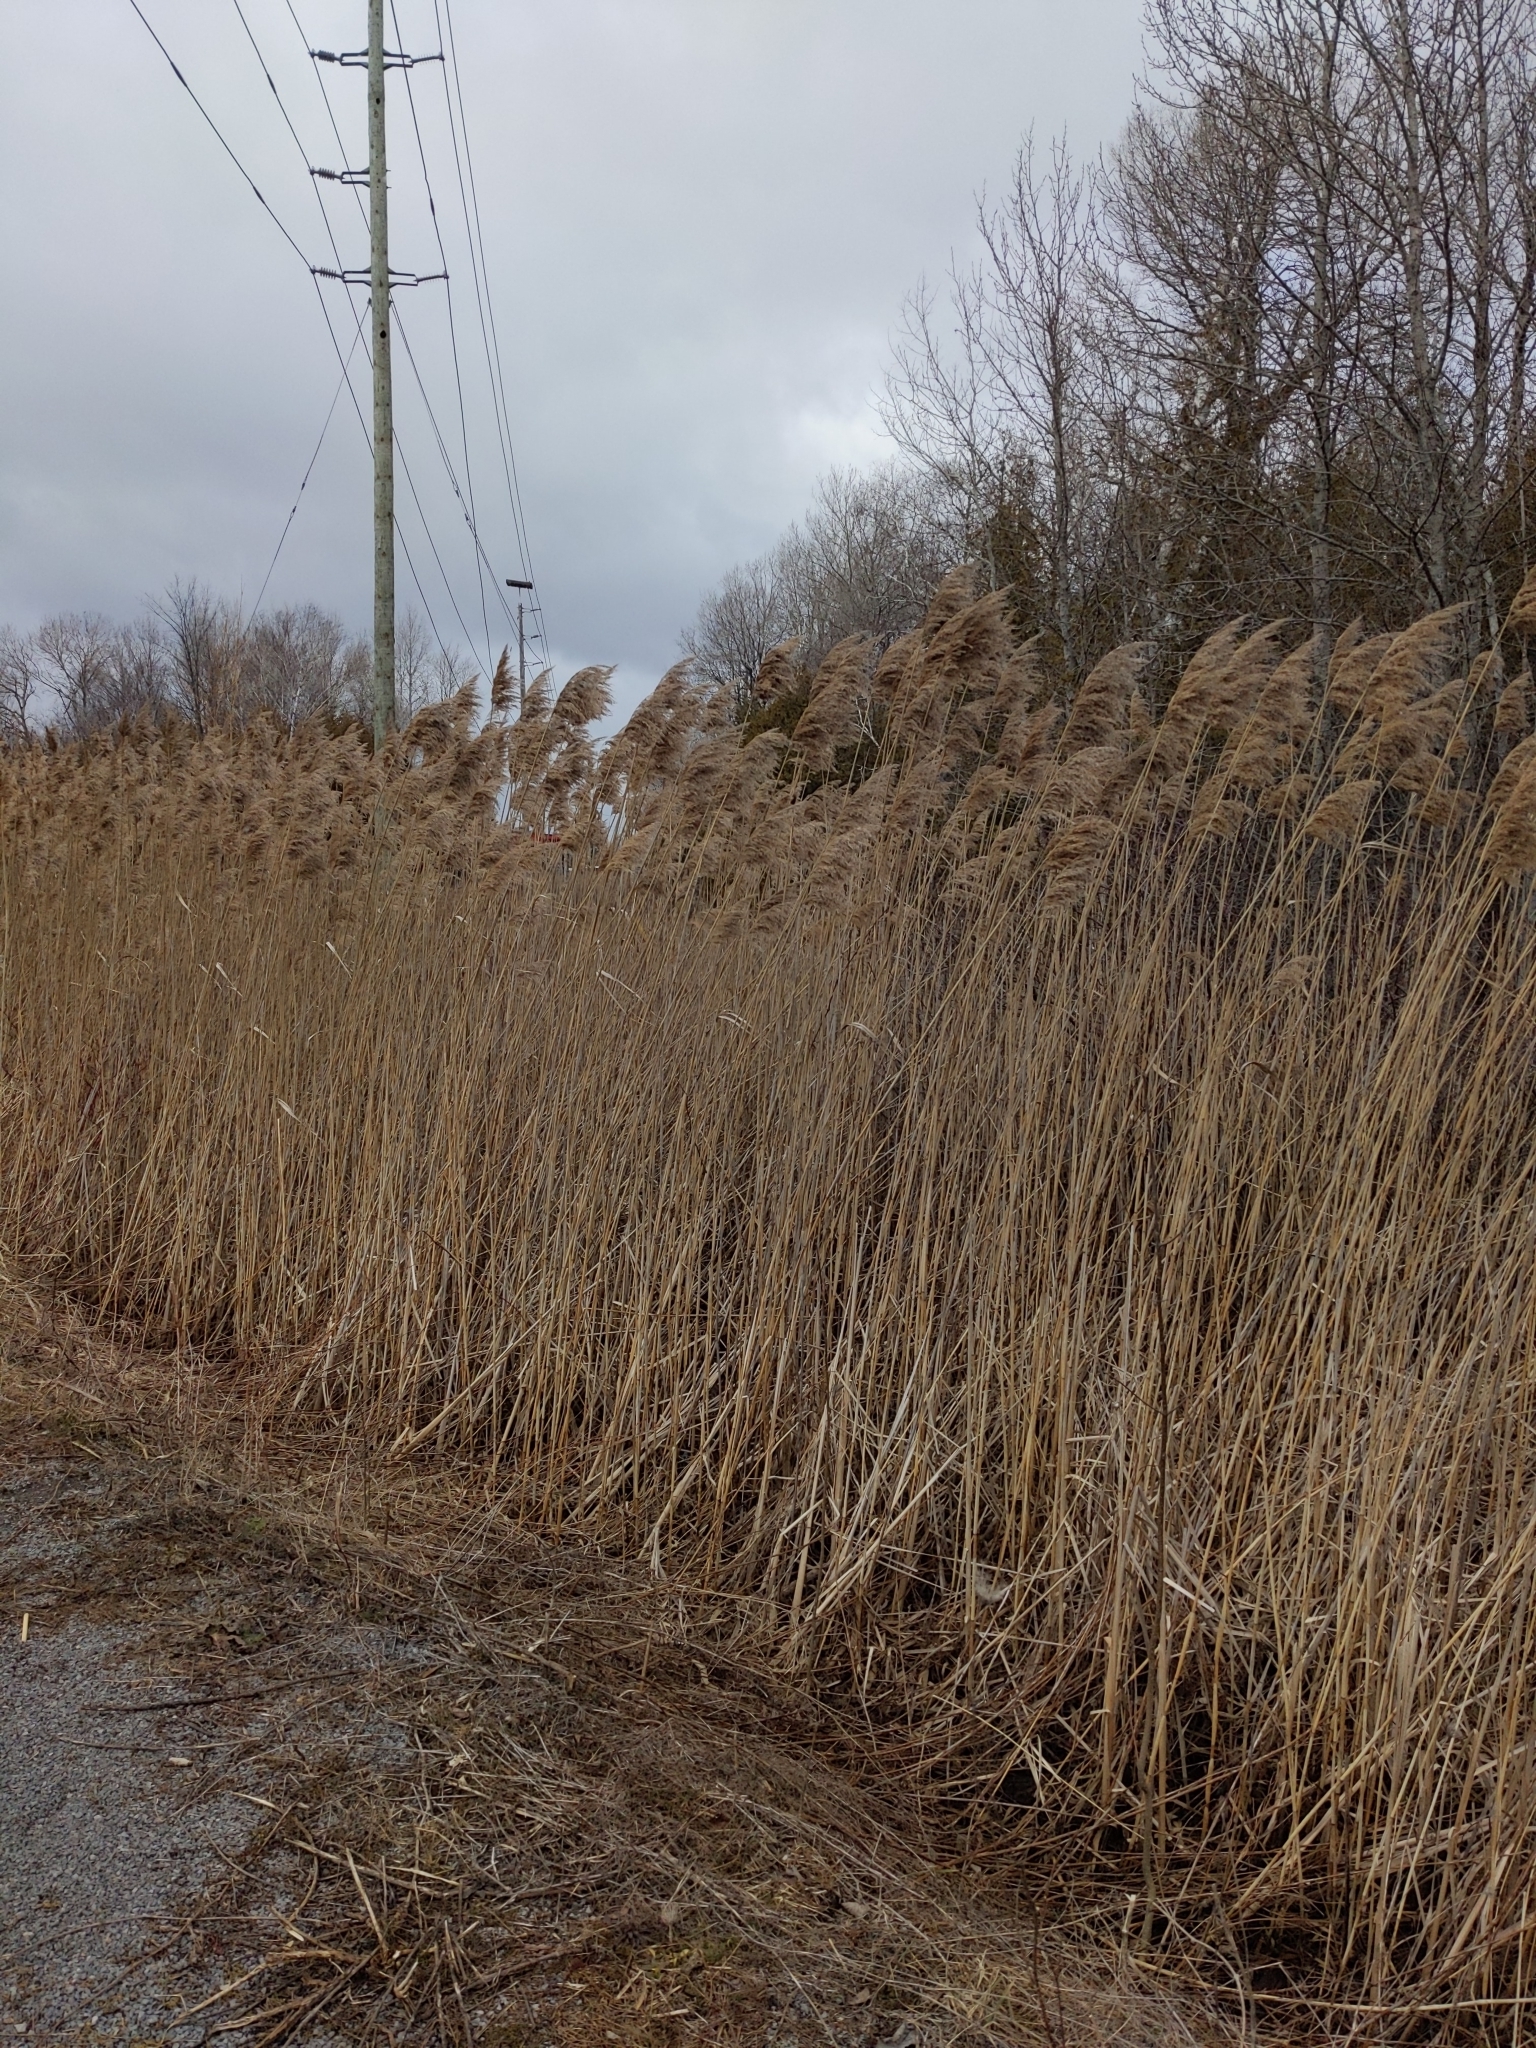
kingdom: Plantae
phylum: Tracheophyta
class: Liliopsida
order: Poales
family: Poaceae
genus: Phragmites
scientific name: Phragmites australis
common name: Common reed
